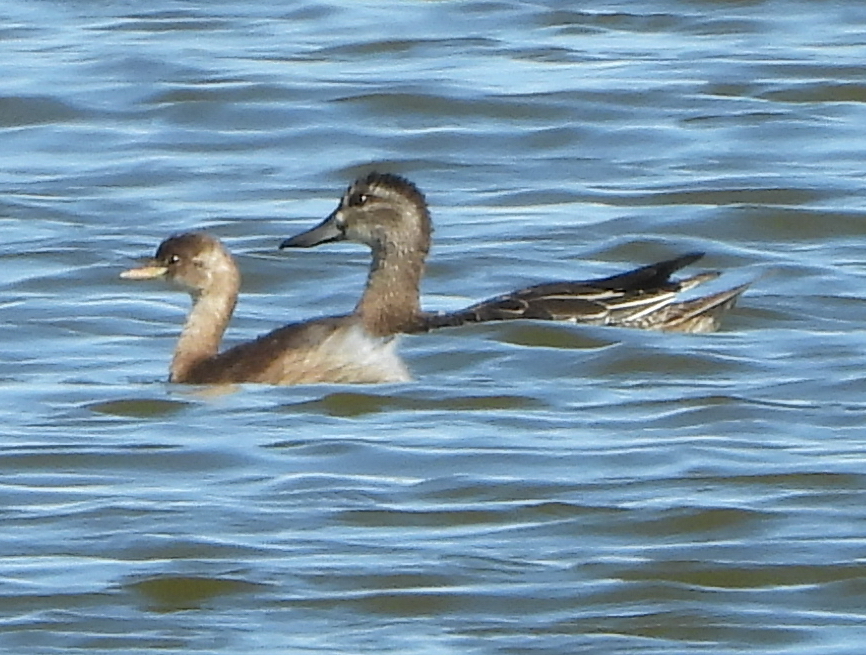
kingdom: Animalia
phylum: Chordata
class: Aves
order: Anseriformes
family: Anatidae
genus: Spatula
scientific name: Spatula querquedula
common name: Garganey
